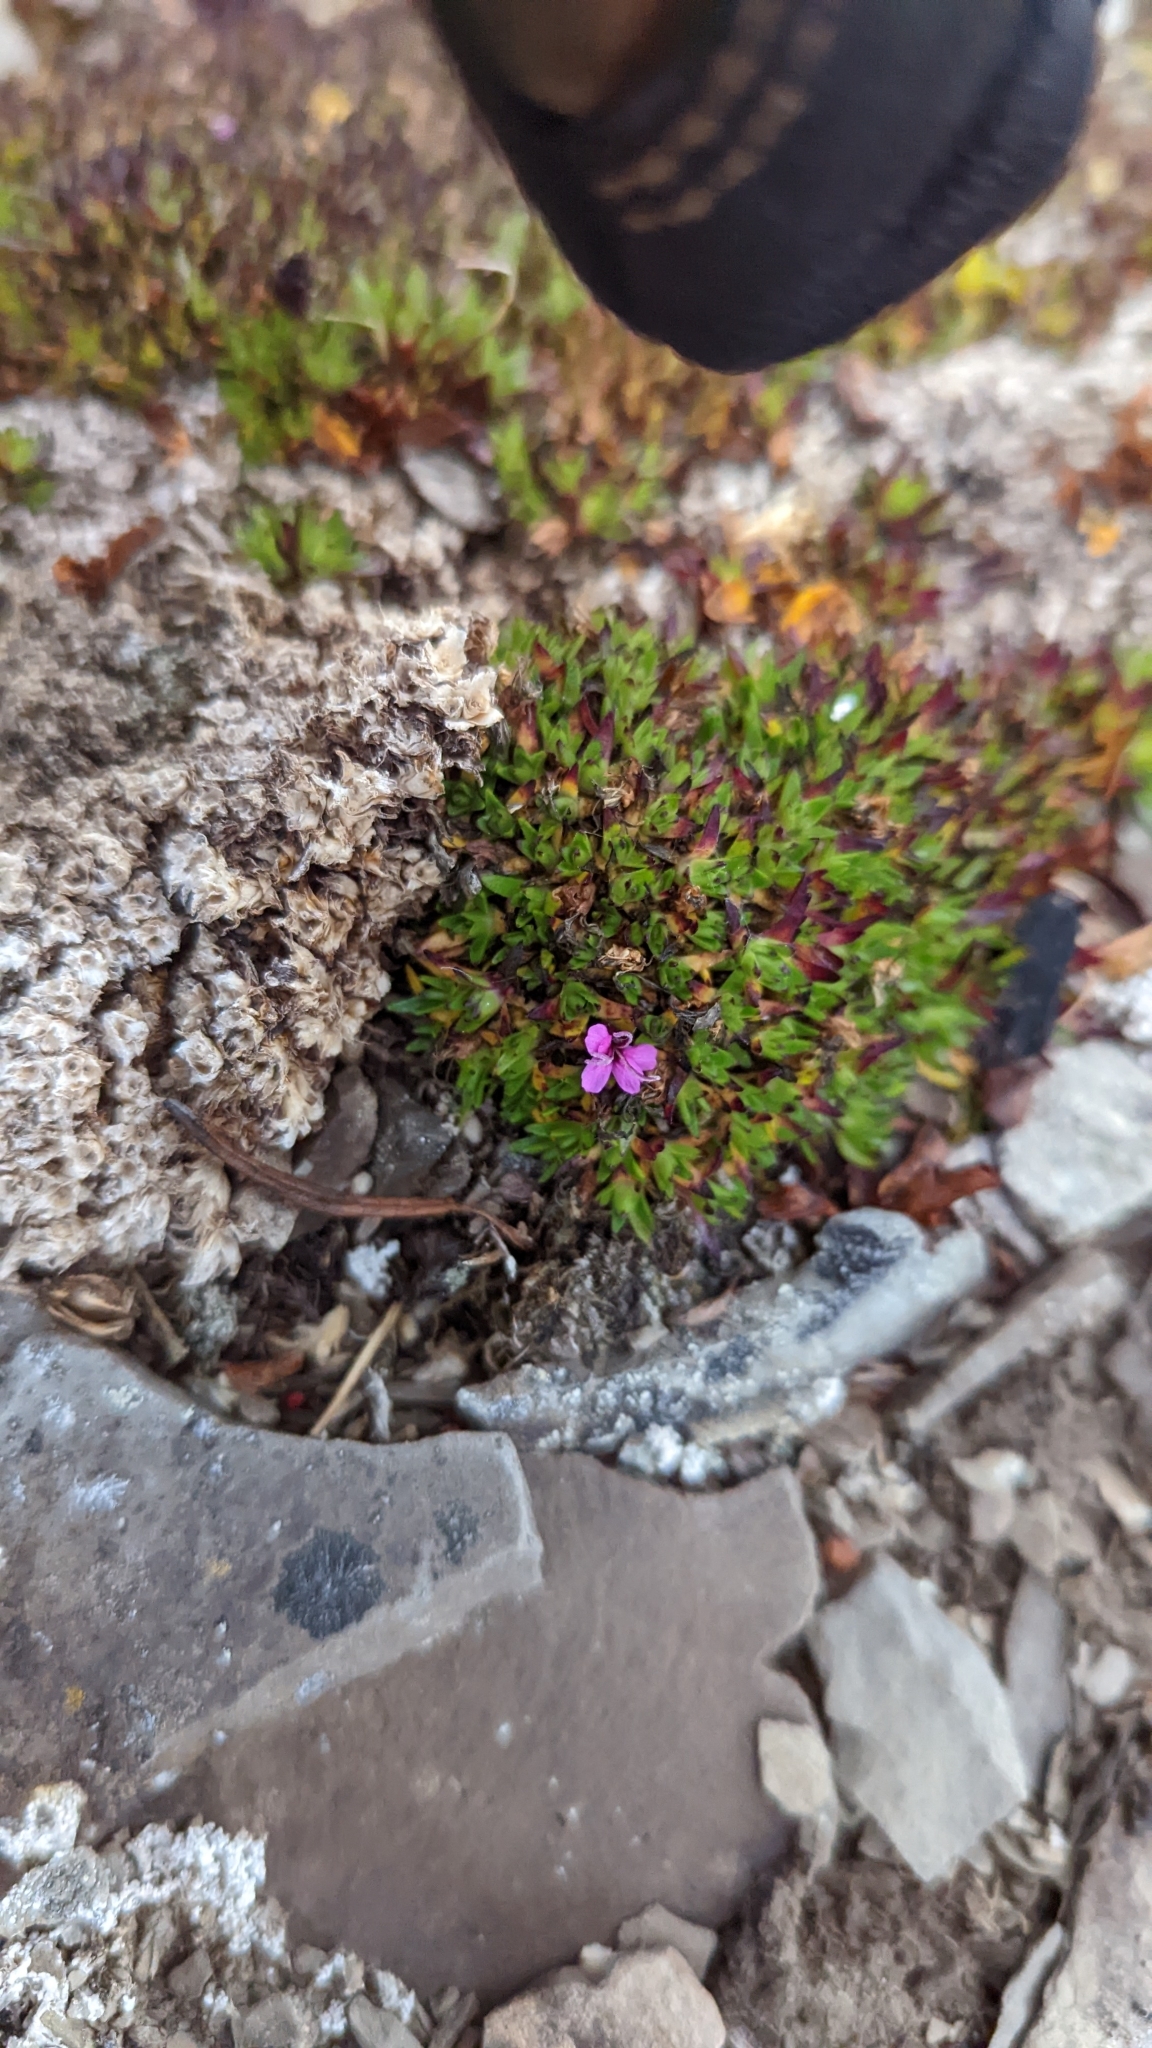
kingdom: Plantae
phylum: Tracheophyta
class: Magnoliopsida
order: Caryophyllales
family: Caryophyllaceae
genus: Silene
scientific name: Silene acaulis
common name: Moss campion
